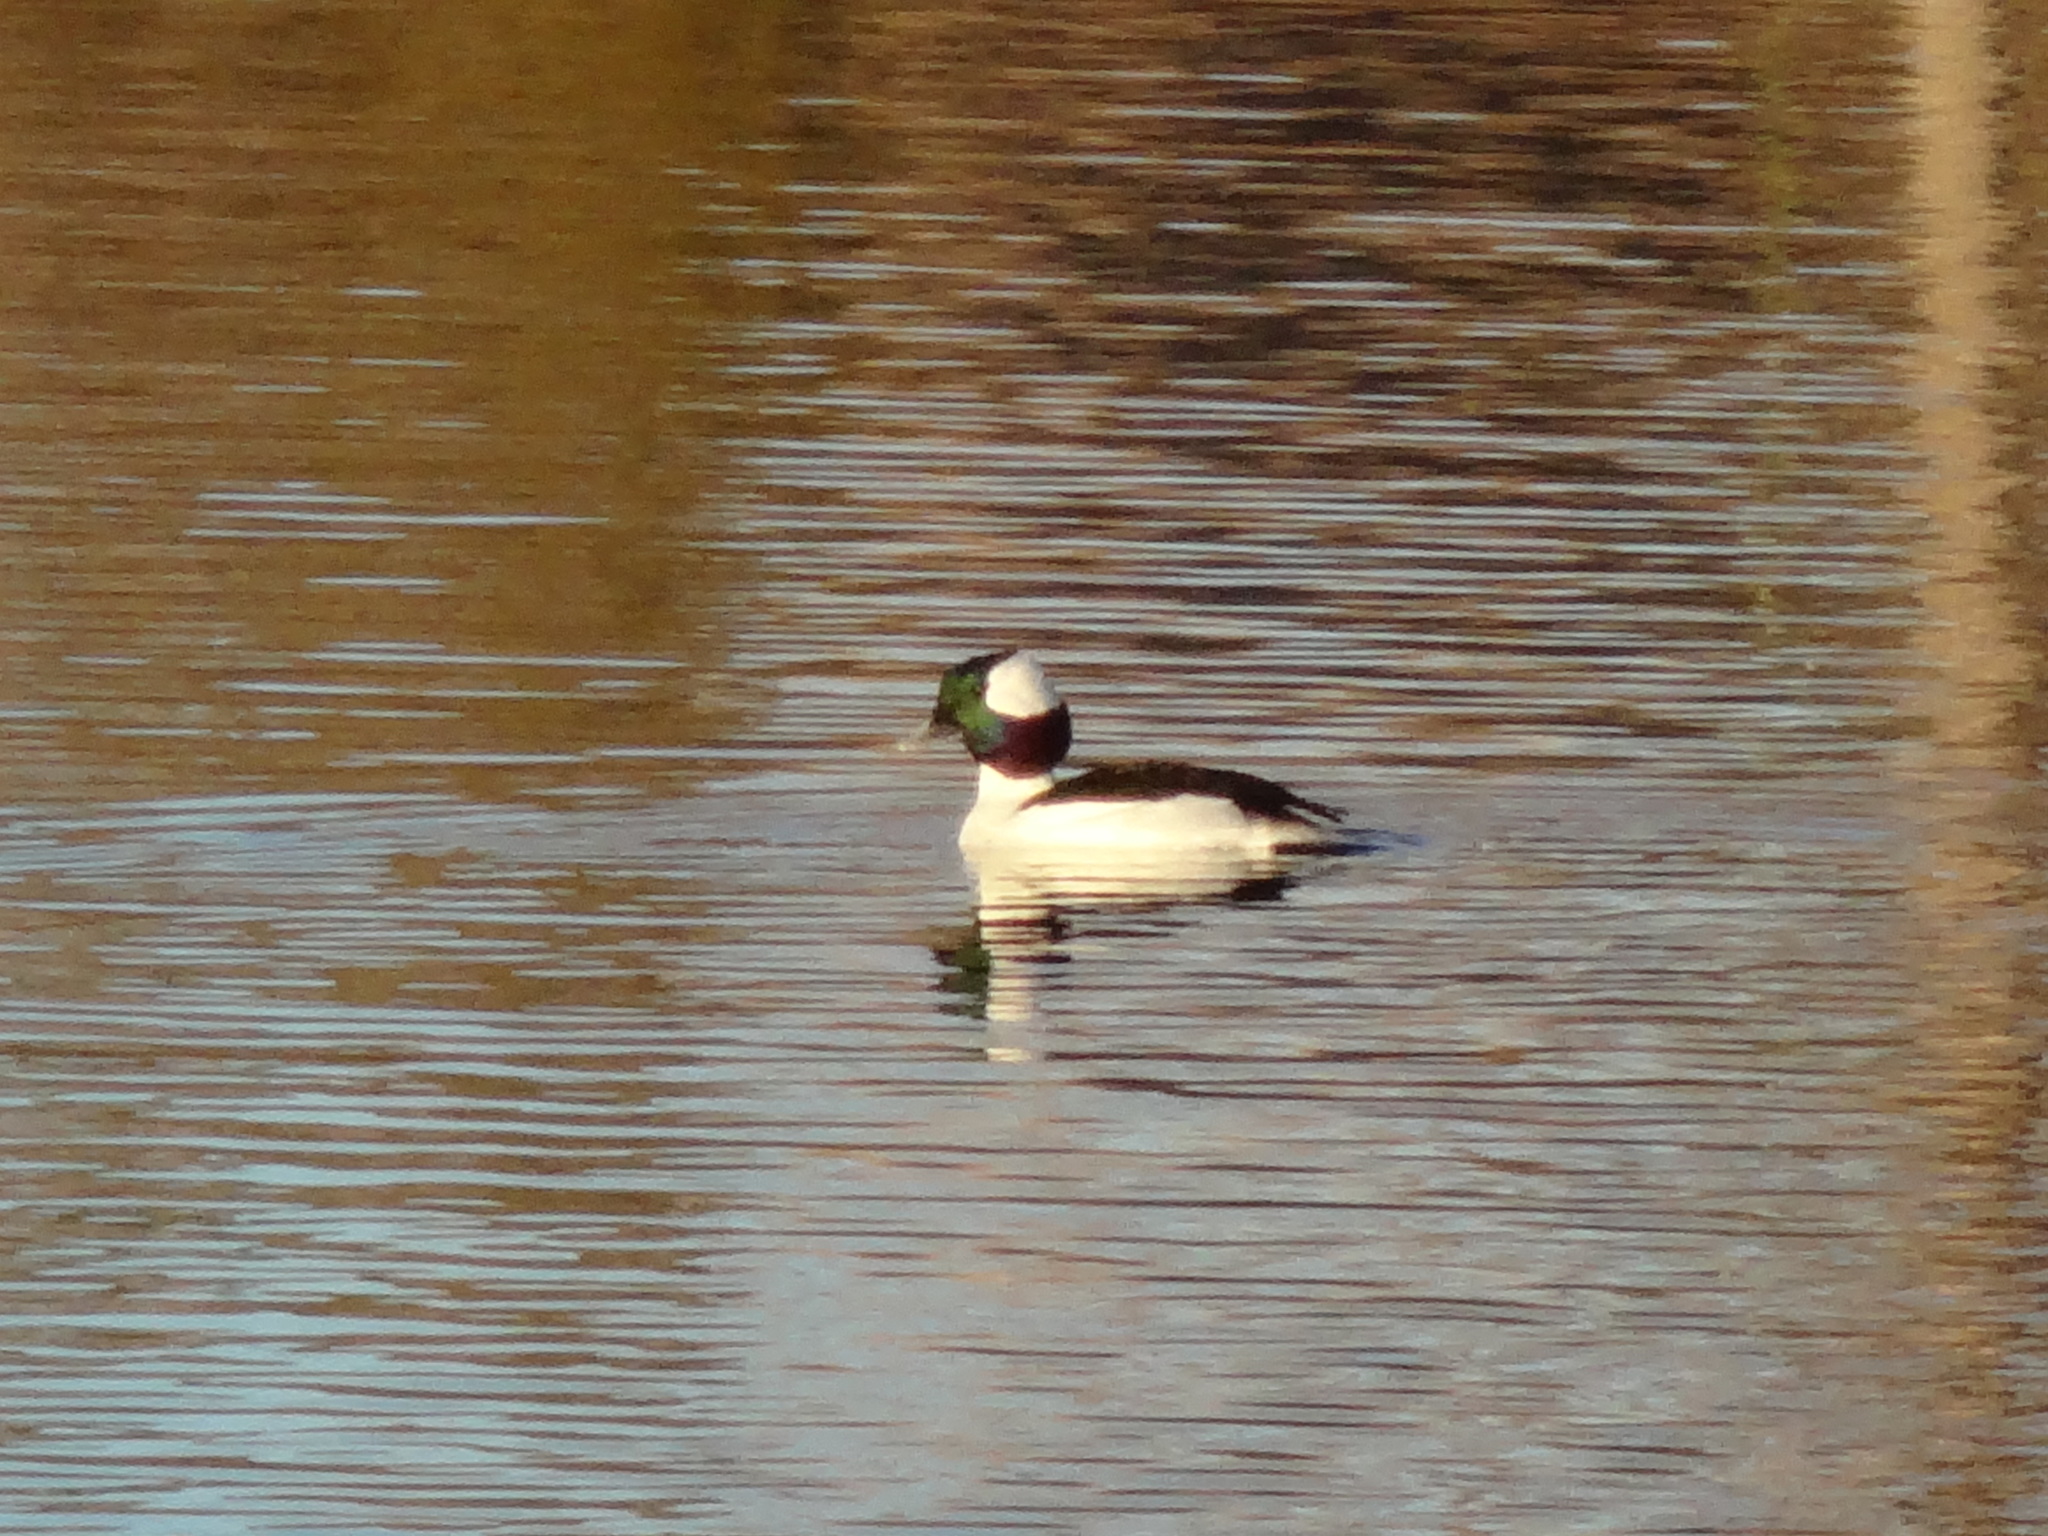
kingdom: Animalia
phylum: Chordata
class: Aves
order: Anseriformes
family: Anatidae
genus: Bucephala
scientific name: Bucephala albeola
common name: Bufflehead
